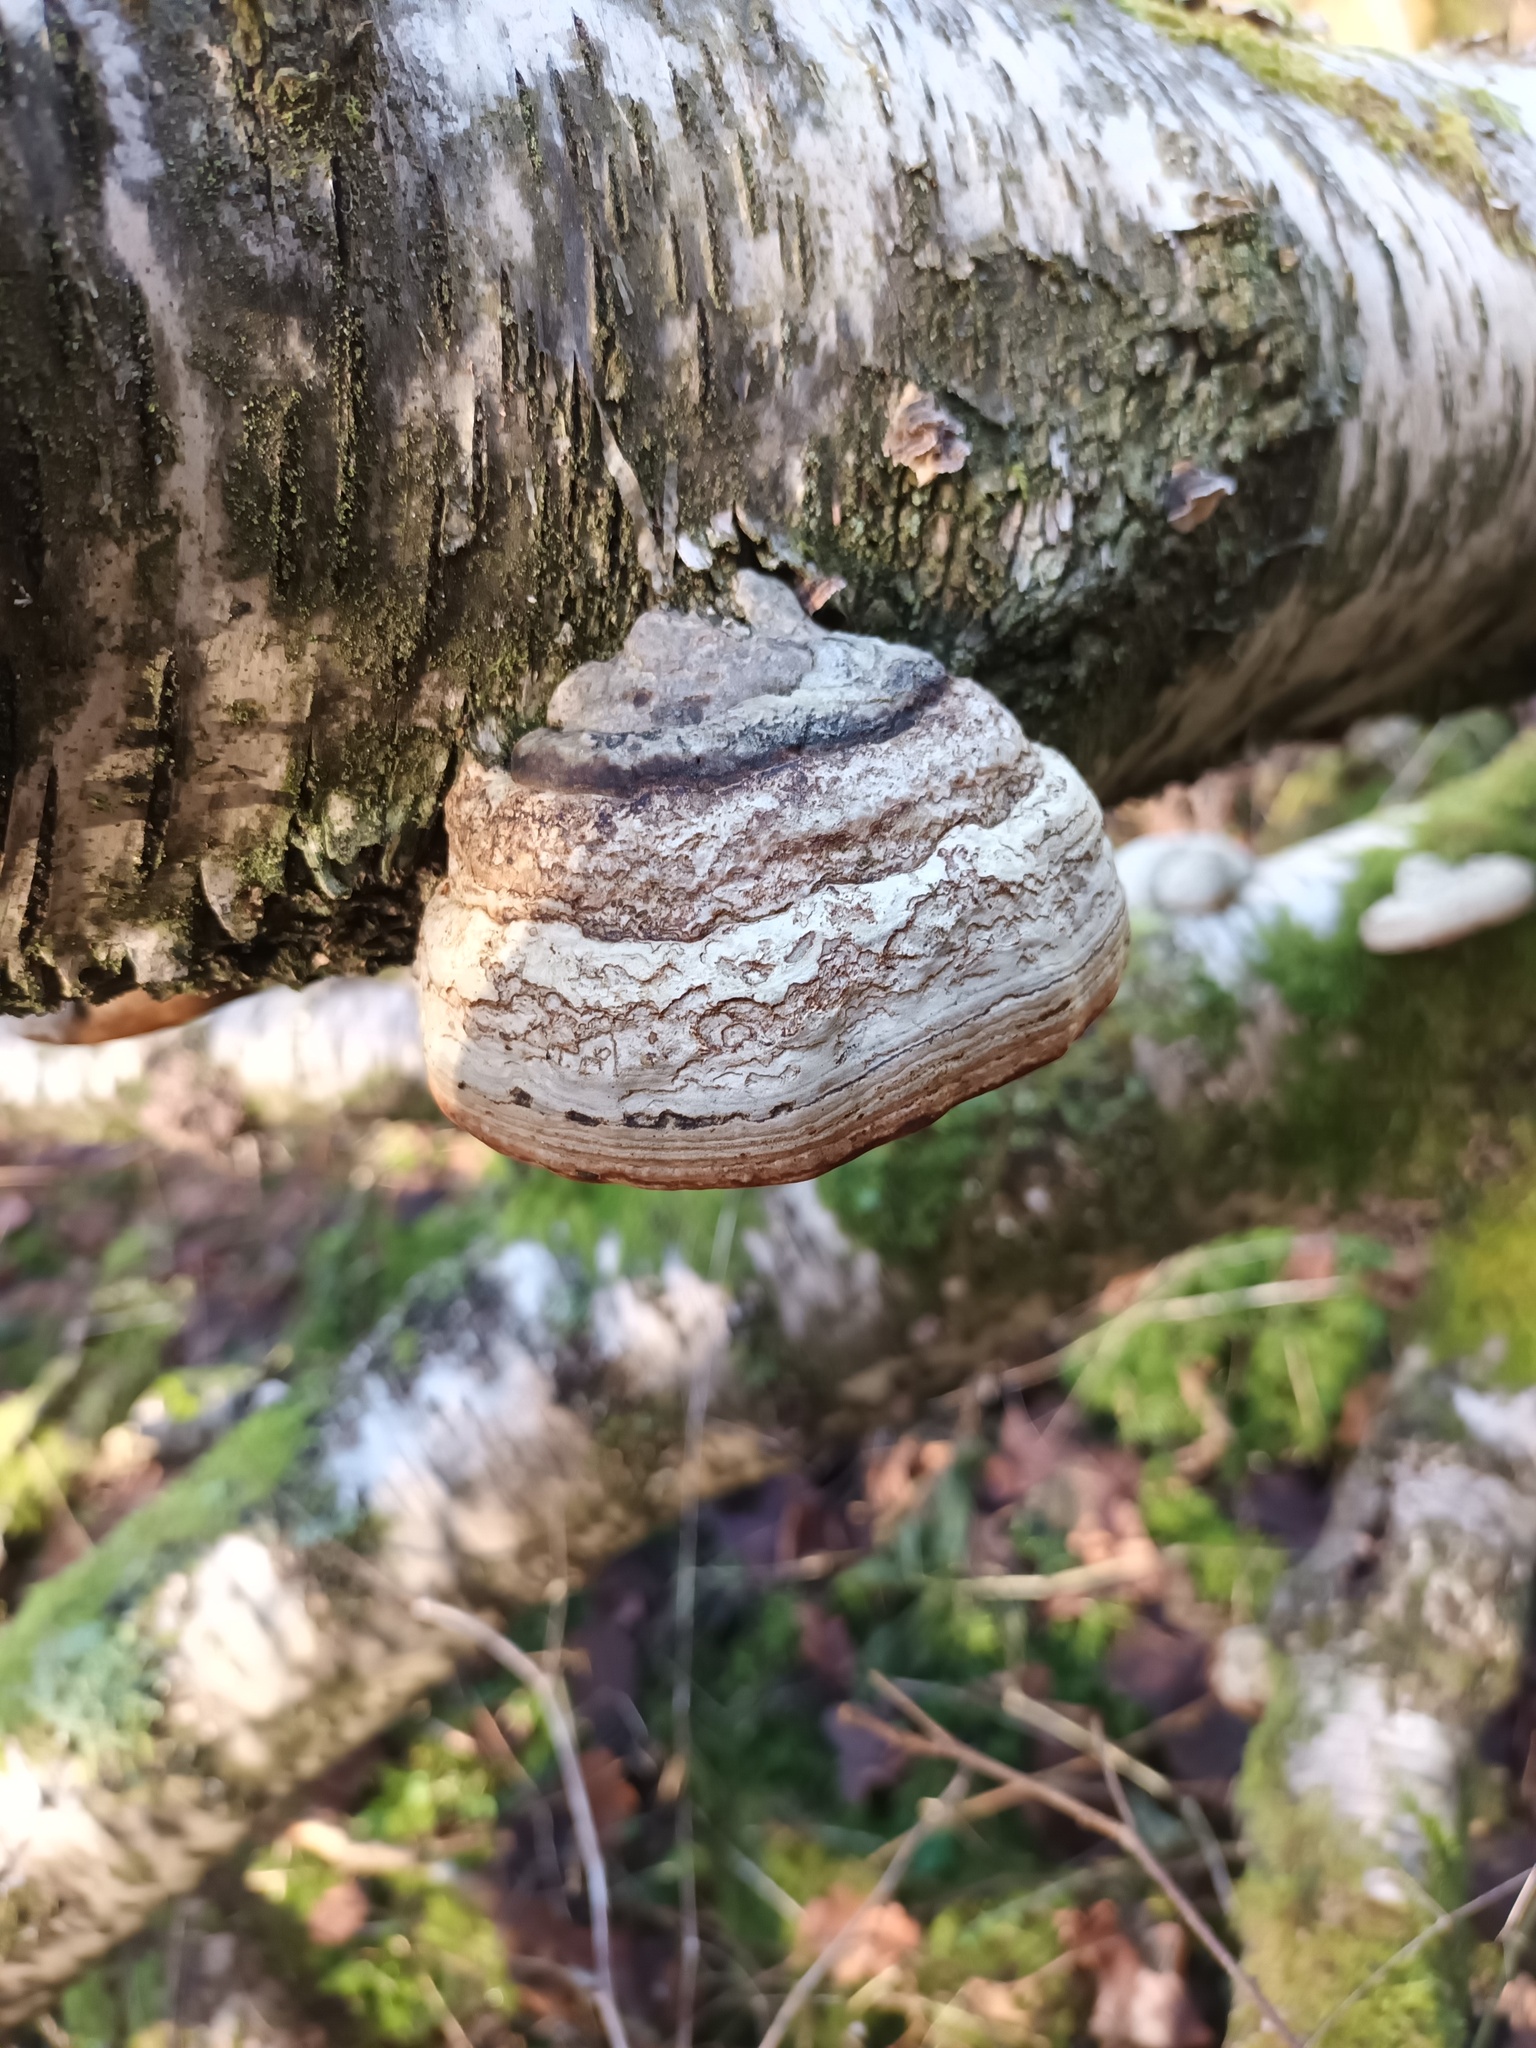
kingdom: Fungi
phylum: Basidiomycota
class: Agaricomycetes
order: Polyporales
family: Polyporaceae
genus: Fomes
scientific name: Fomes fomentarius
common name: Hoof fungus
